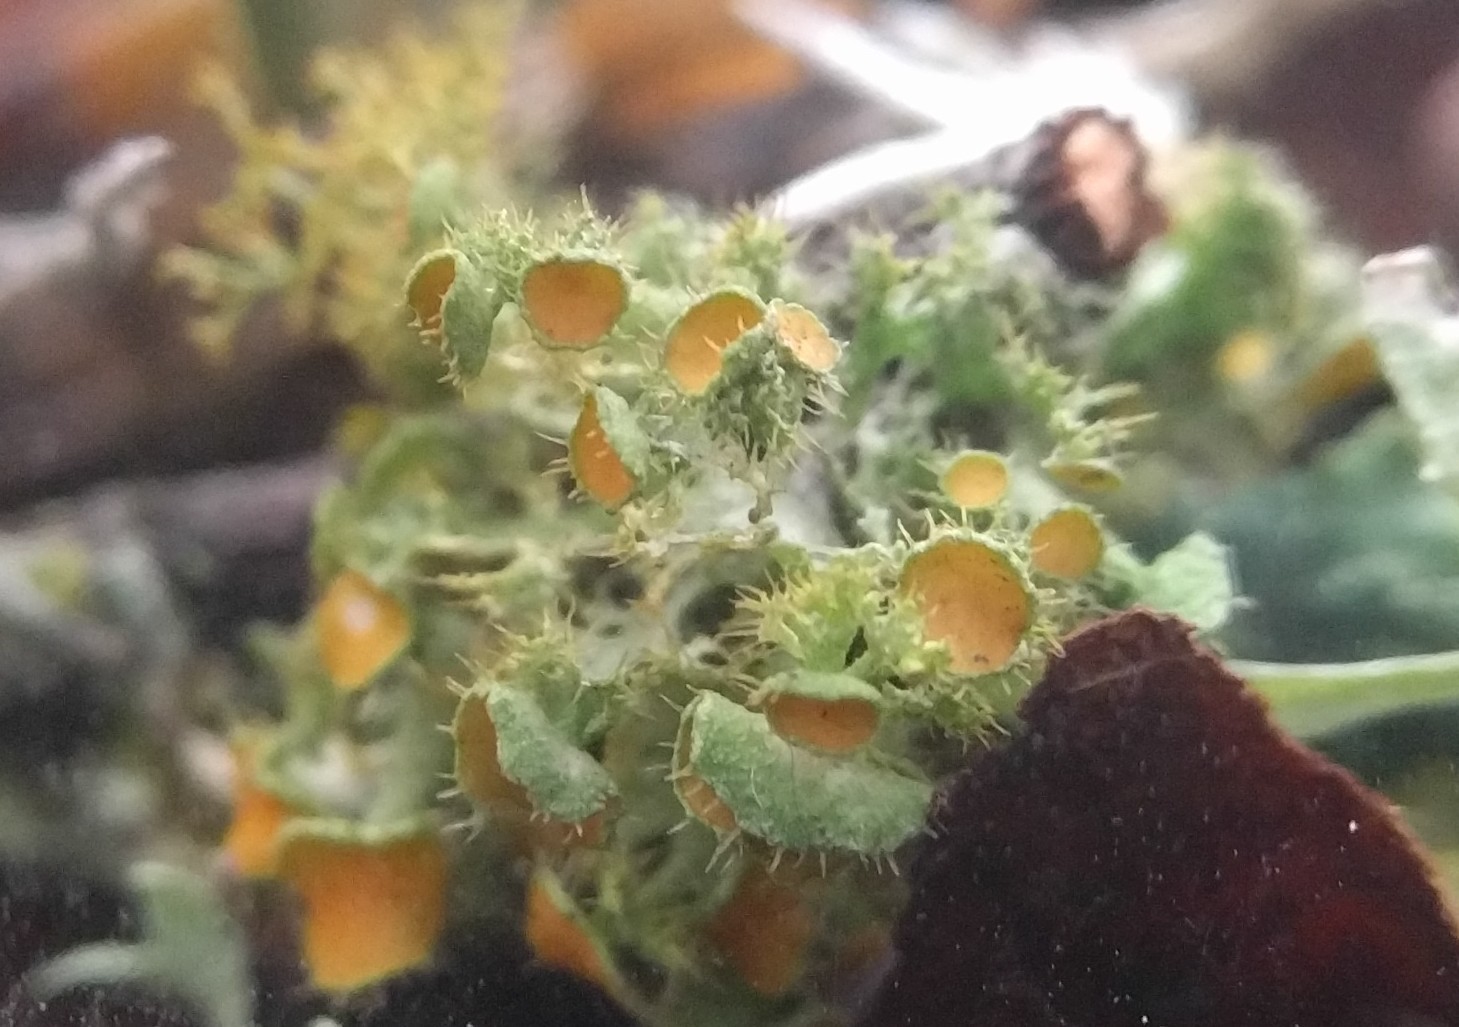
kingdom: Fungi
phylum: Ascomycota
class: Lecanoromycetes
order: Teloschistales
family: Teloschistaceae
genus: Niorma
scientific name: Niorma chrysophthalma
